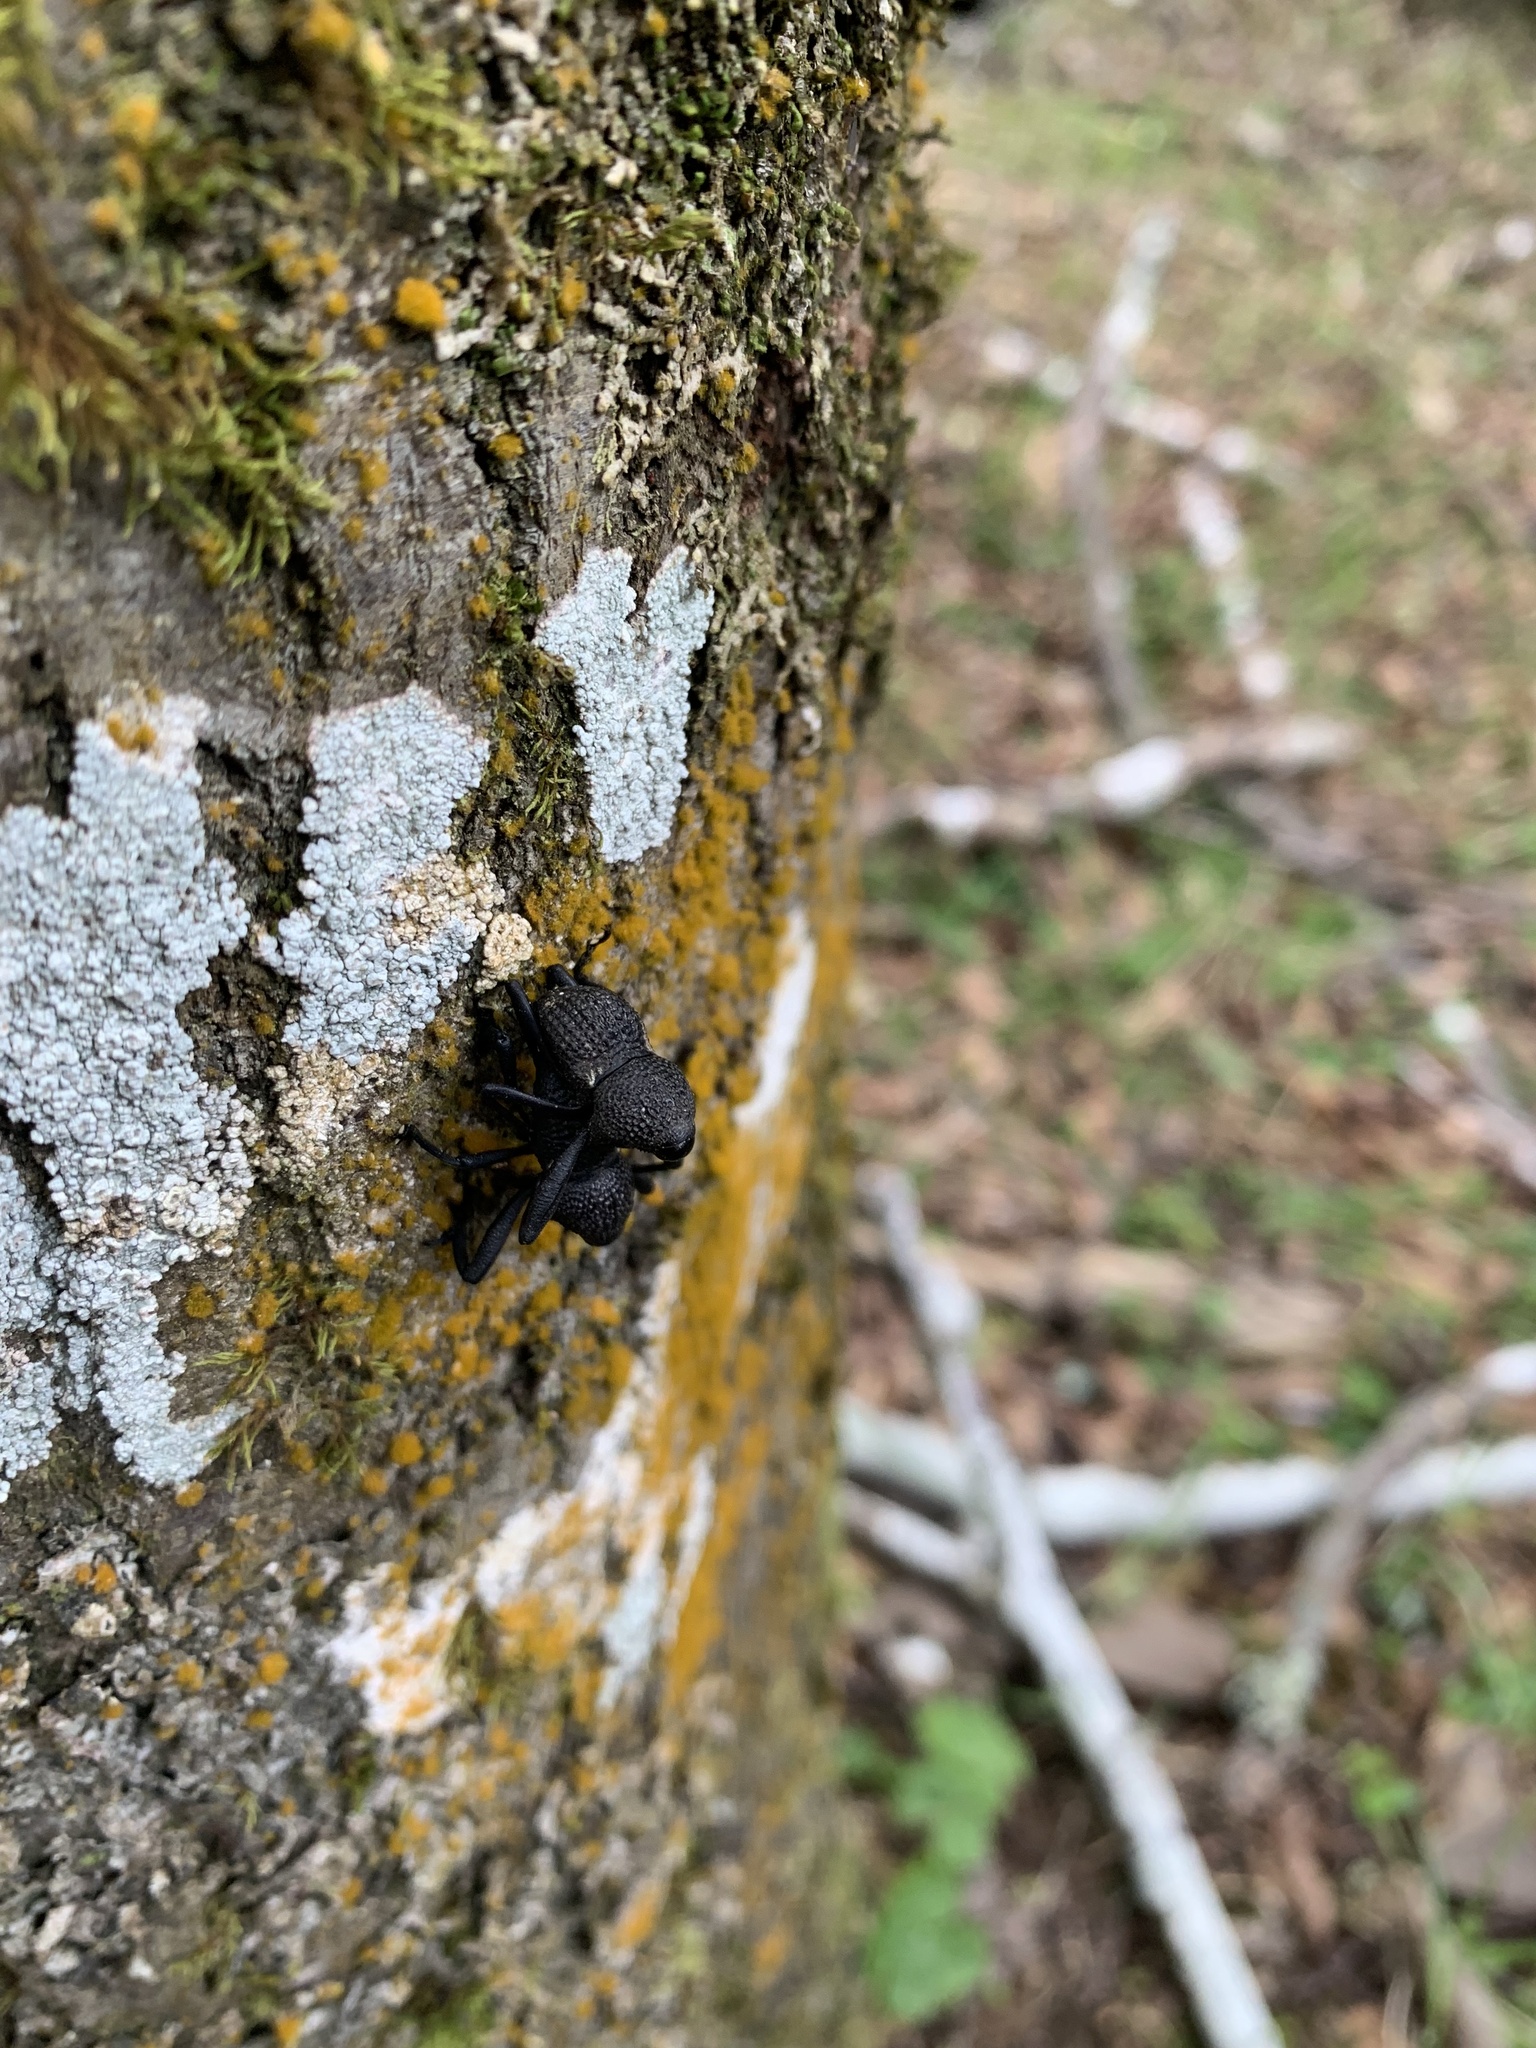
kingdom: Animalia
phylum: Arthropoda
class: Insecta
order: Coleoptera
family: Curculionidae
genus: Rhyephenes
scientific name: Rhyephenes humeralis
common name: Araè±ita chilena del pino
